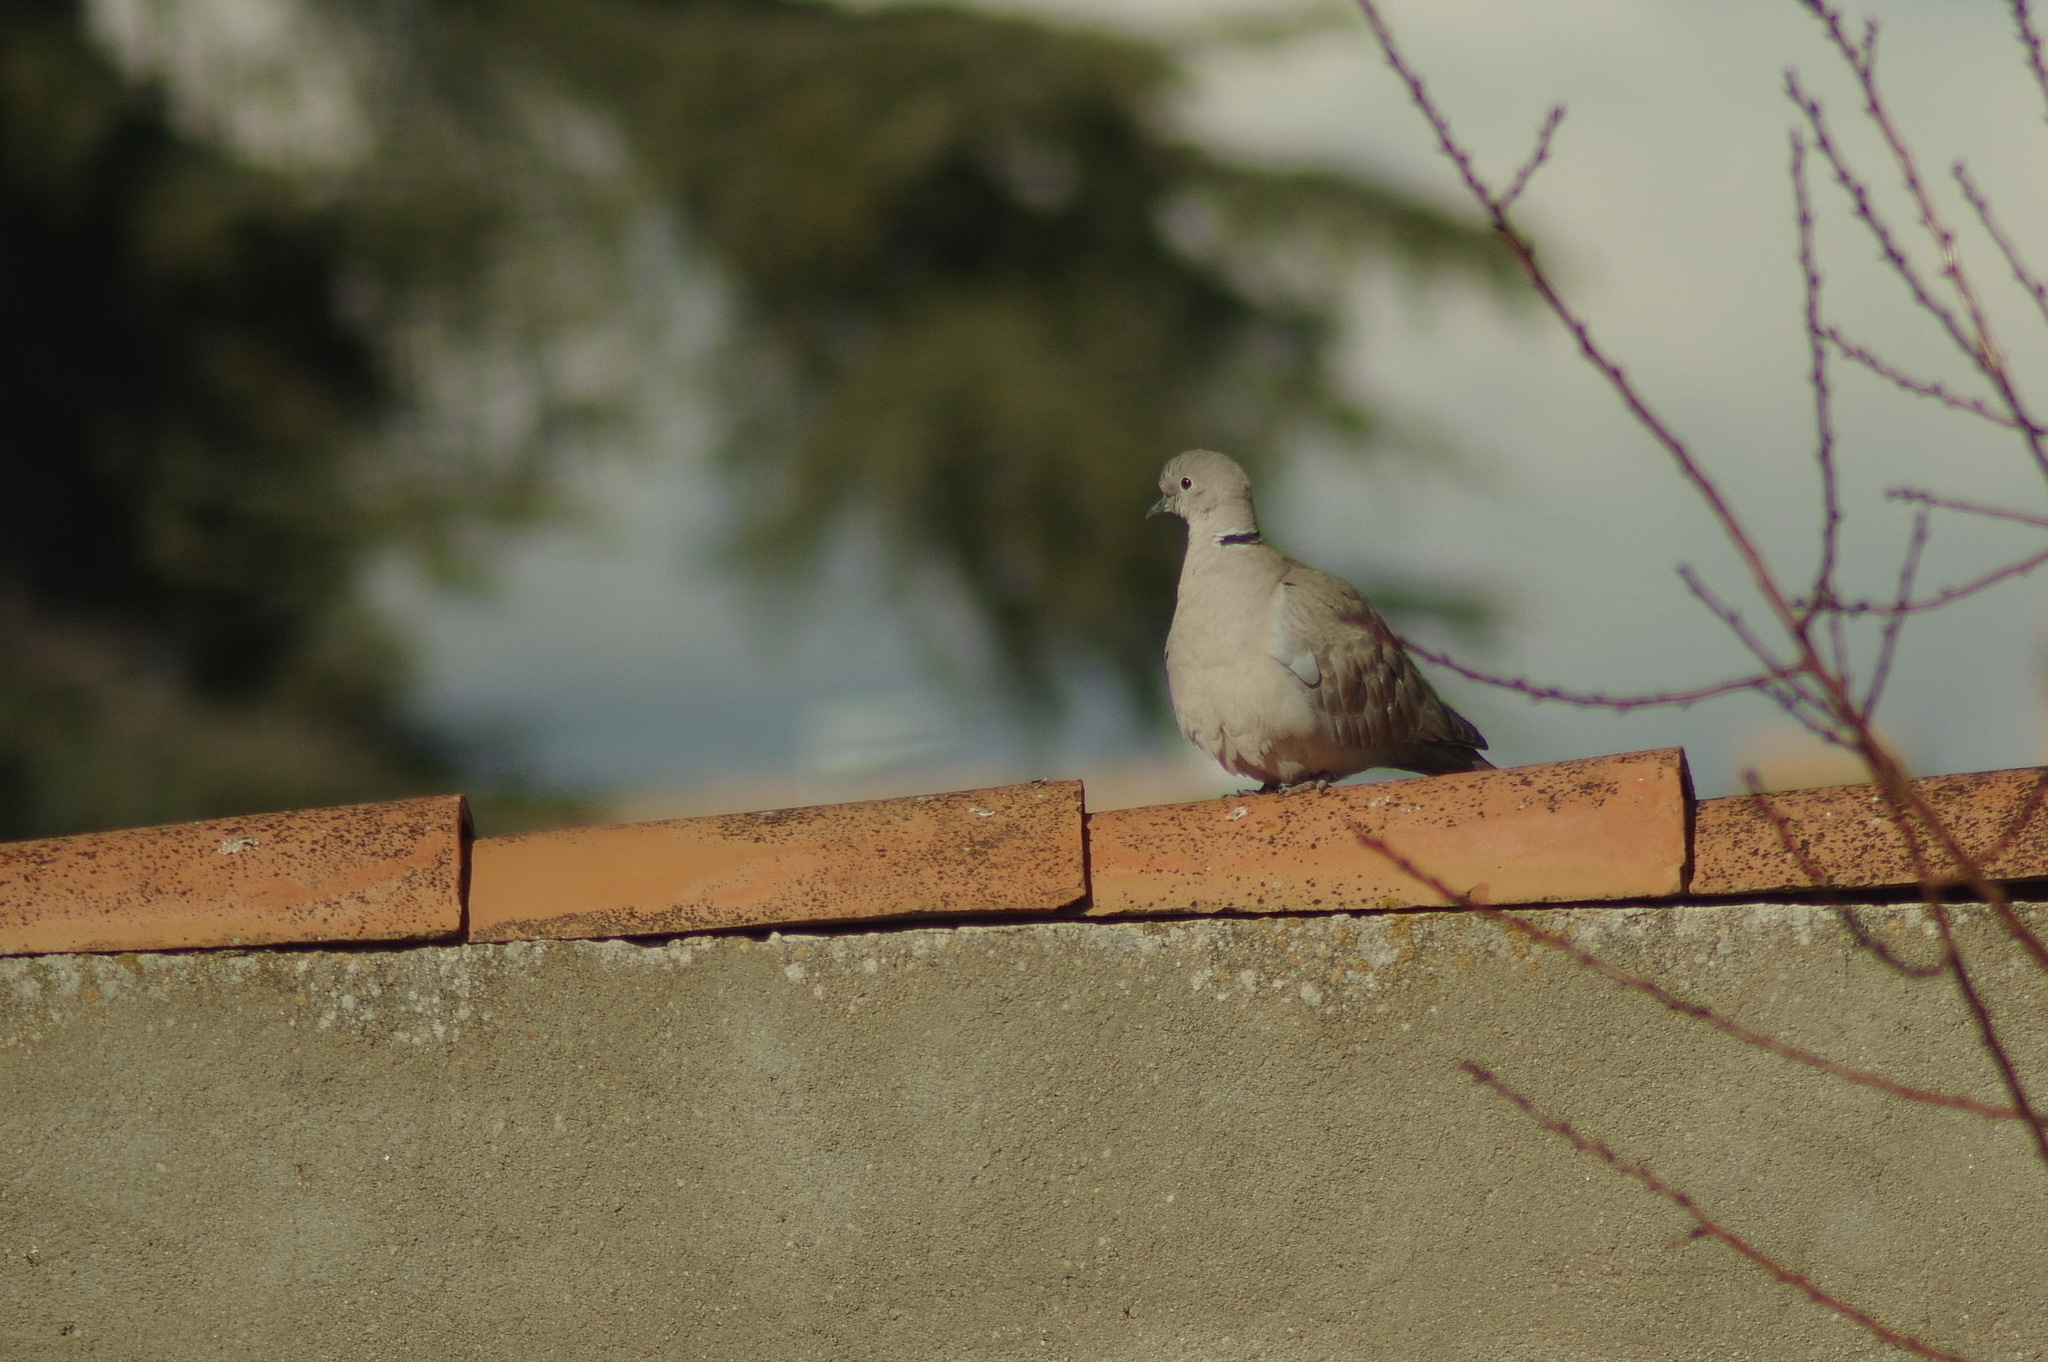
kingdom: Animalia
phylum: Chordata
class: Aves
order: Columbiformes
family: Columbidae
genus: Streptopelia
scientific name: Streptopelia decaocto
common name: Eurasian collared dove
